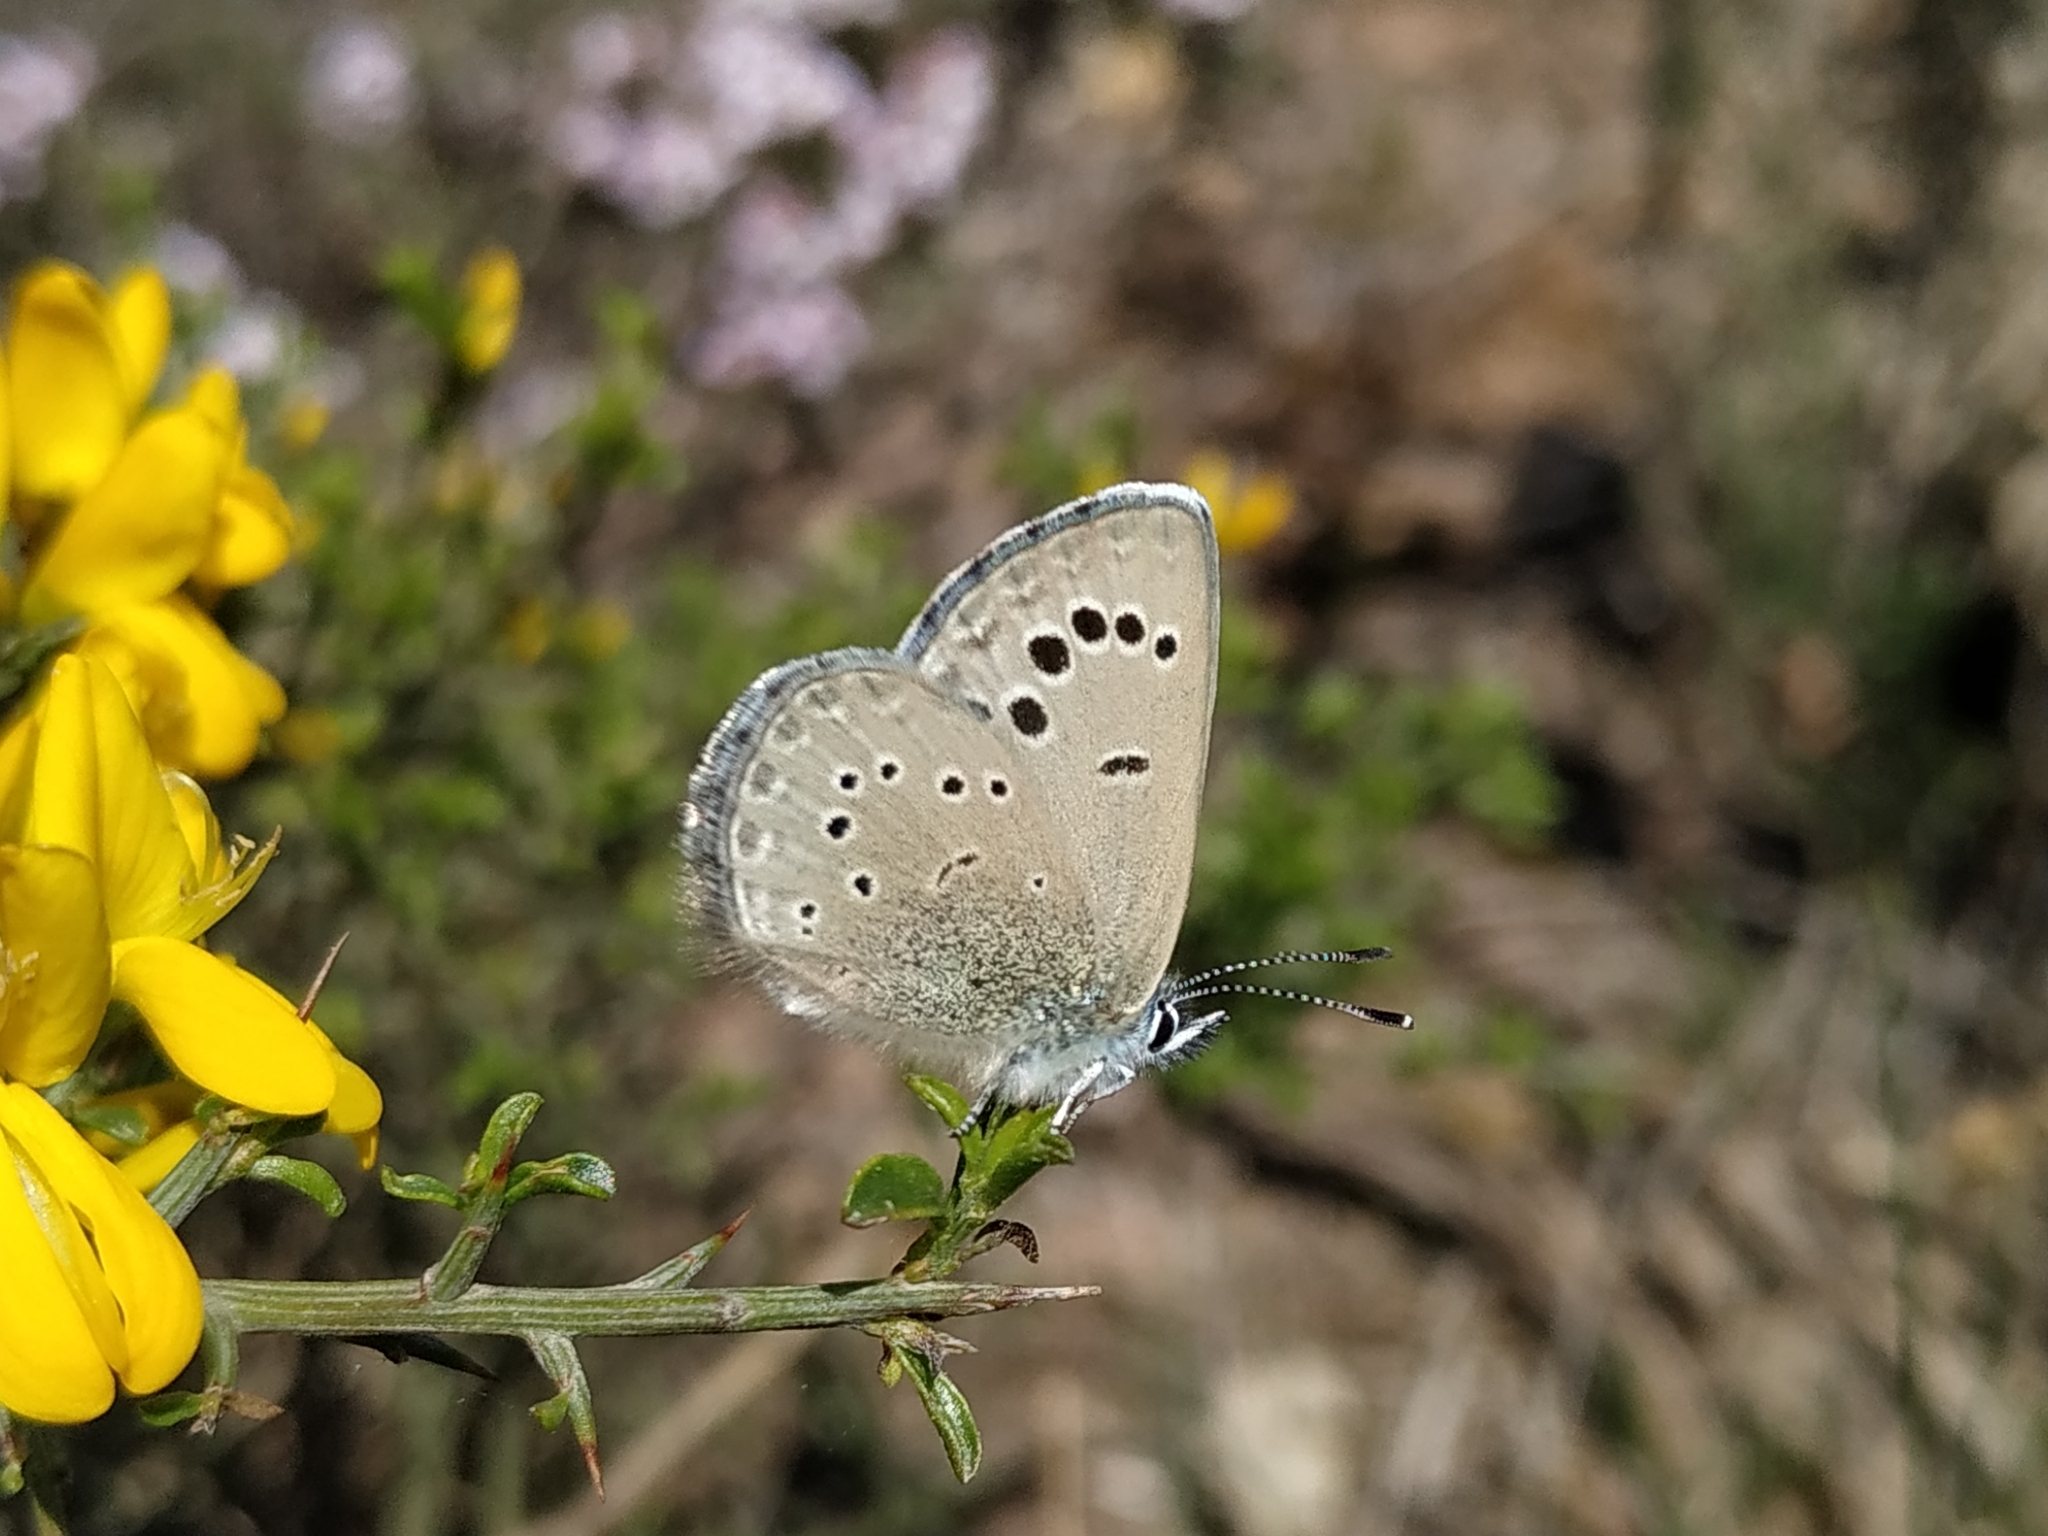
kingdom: Animalia
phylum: Arthropoda
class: Insecta
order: Lepidoptera
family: Lycaenidae
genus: Glaucopsyche
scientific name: Glaucopsyche melanops
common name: Black-eyed blue
